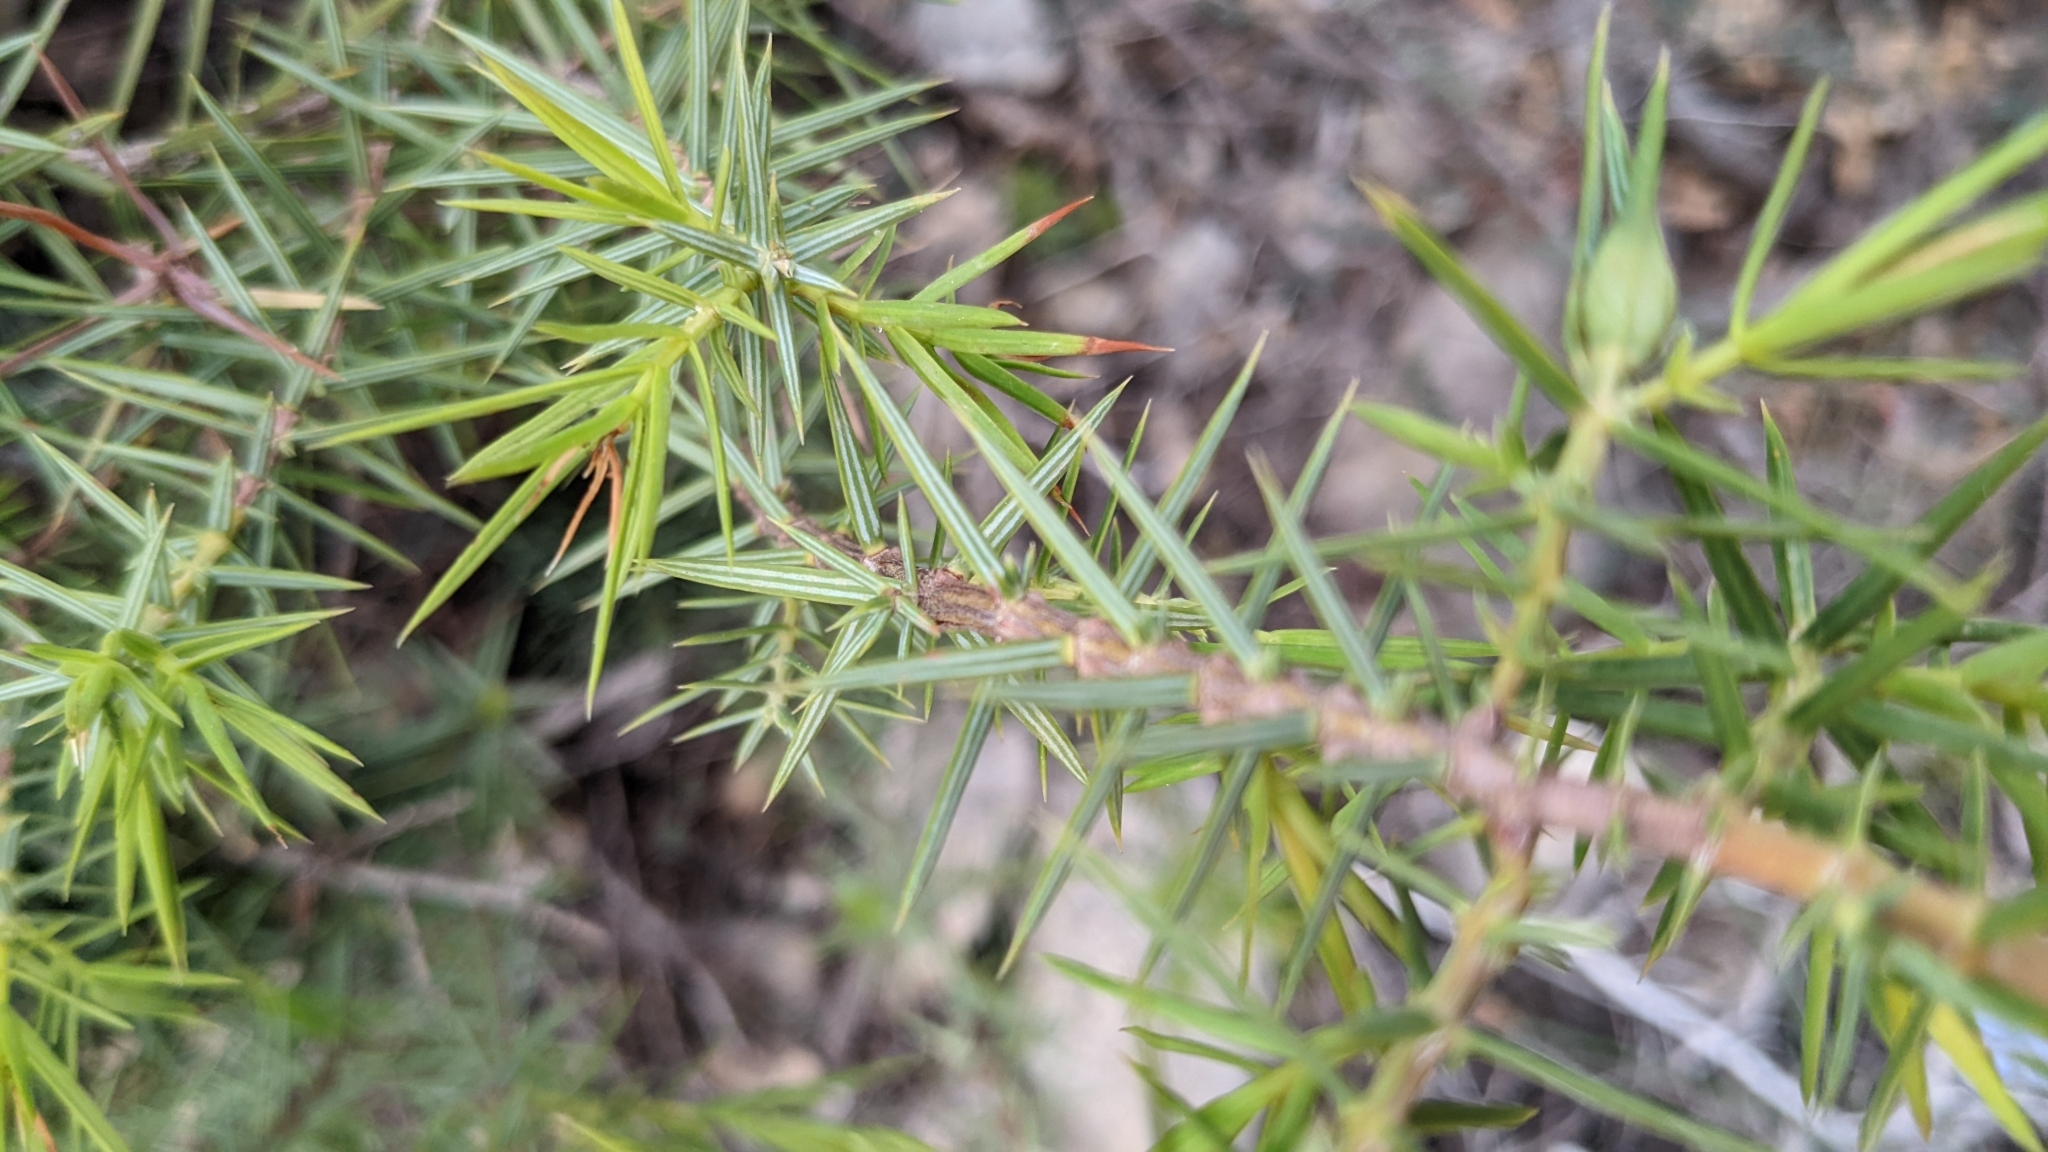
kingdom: Plantae
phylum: Tracheophyta
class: Pinopsida
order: Pinales
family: Cupressaceae
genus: Juniperus
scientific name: Juniperus oxycedrus
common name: Prickly juniper
